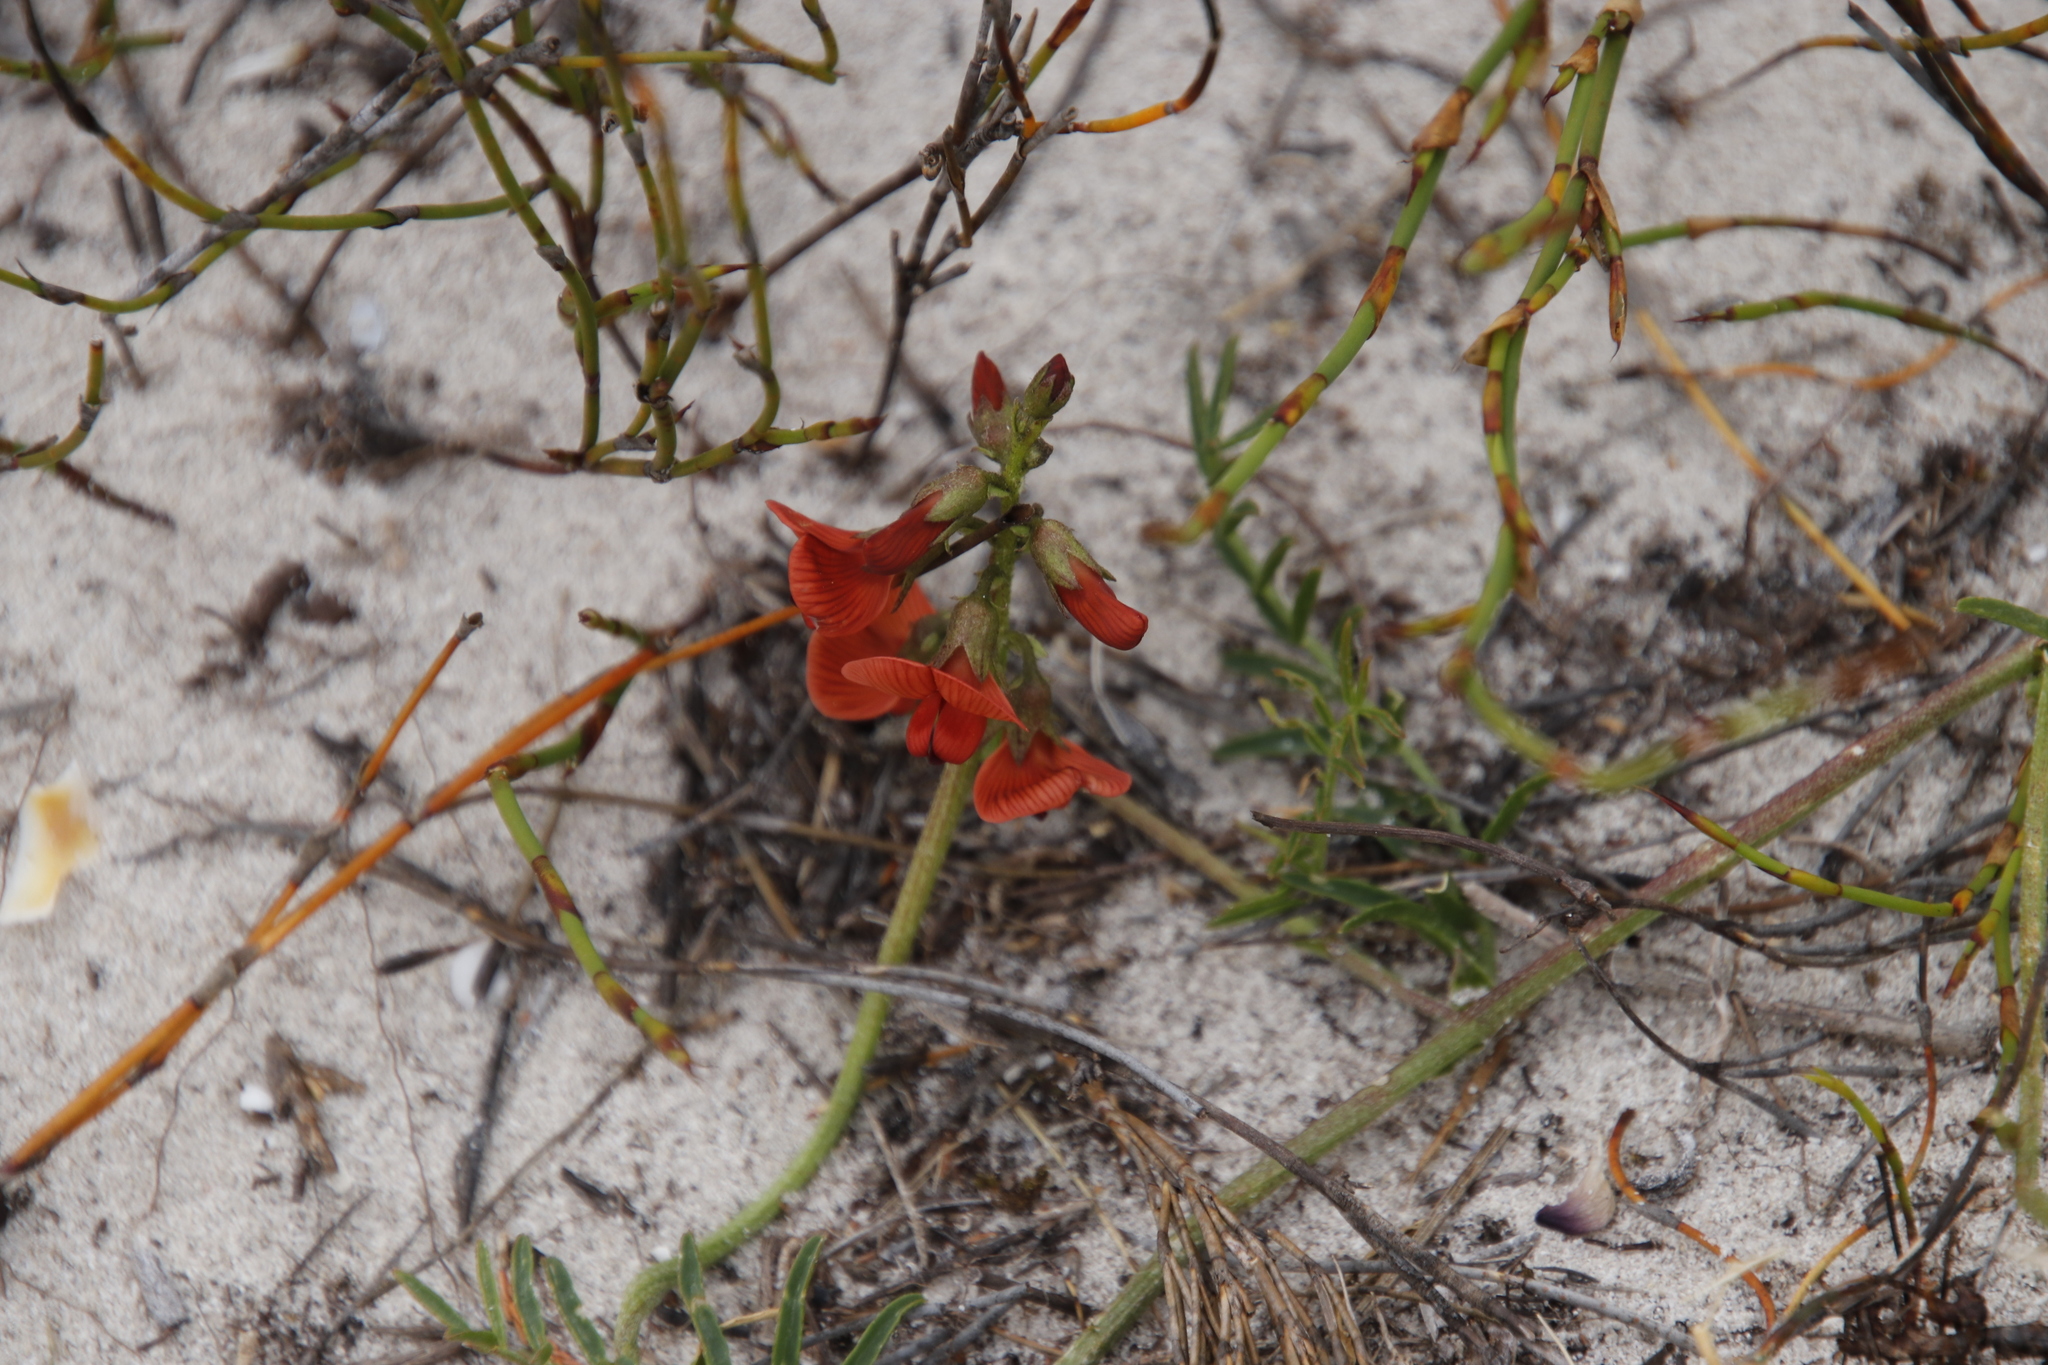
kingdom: Plantae
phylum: Tracheophyta
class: Magnoliopsida
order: Fabales
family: Fabaceae
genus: Lessertia
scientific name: Lessertia miniata
